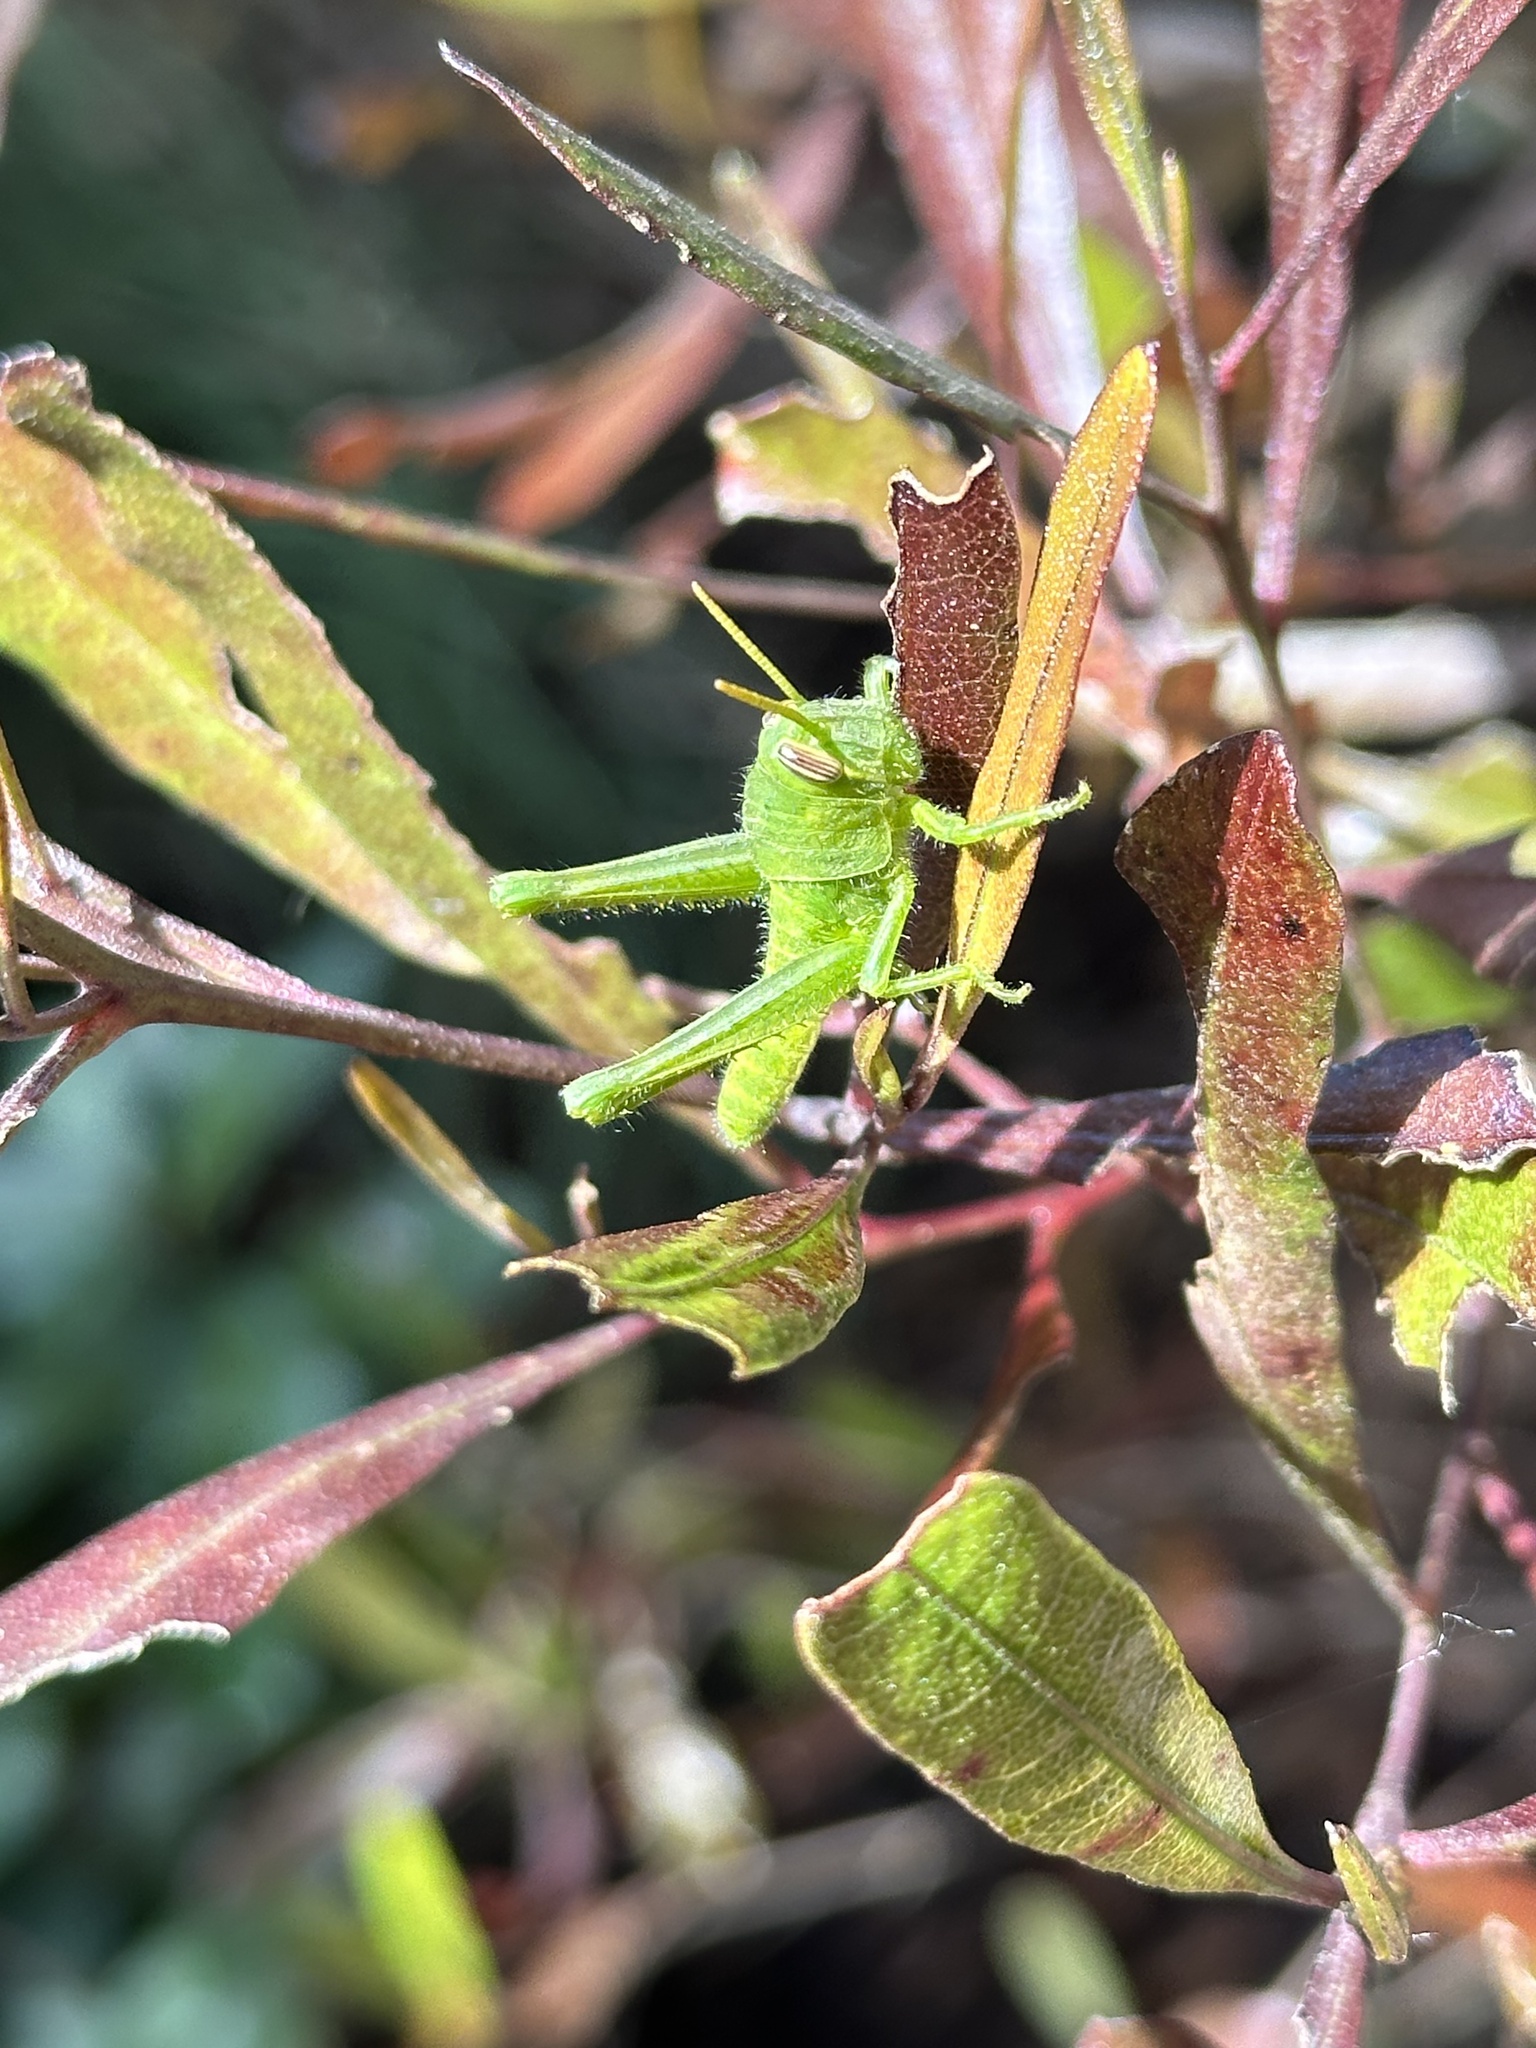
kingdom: Animalia
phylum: Arthropoda
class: Insecta
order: Orthoptera
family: Acrididae
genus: Schistocerca
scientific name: Schistocerca nitens
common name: Vagrant grasshopper
